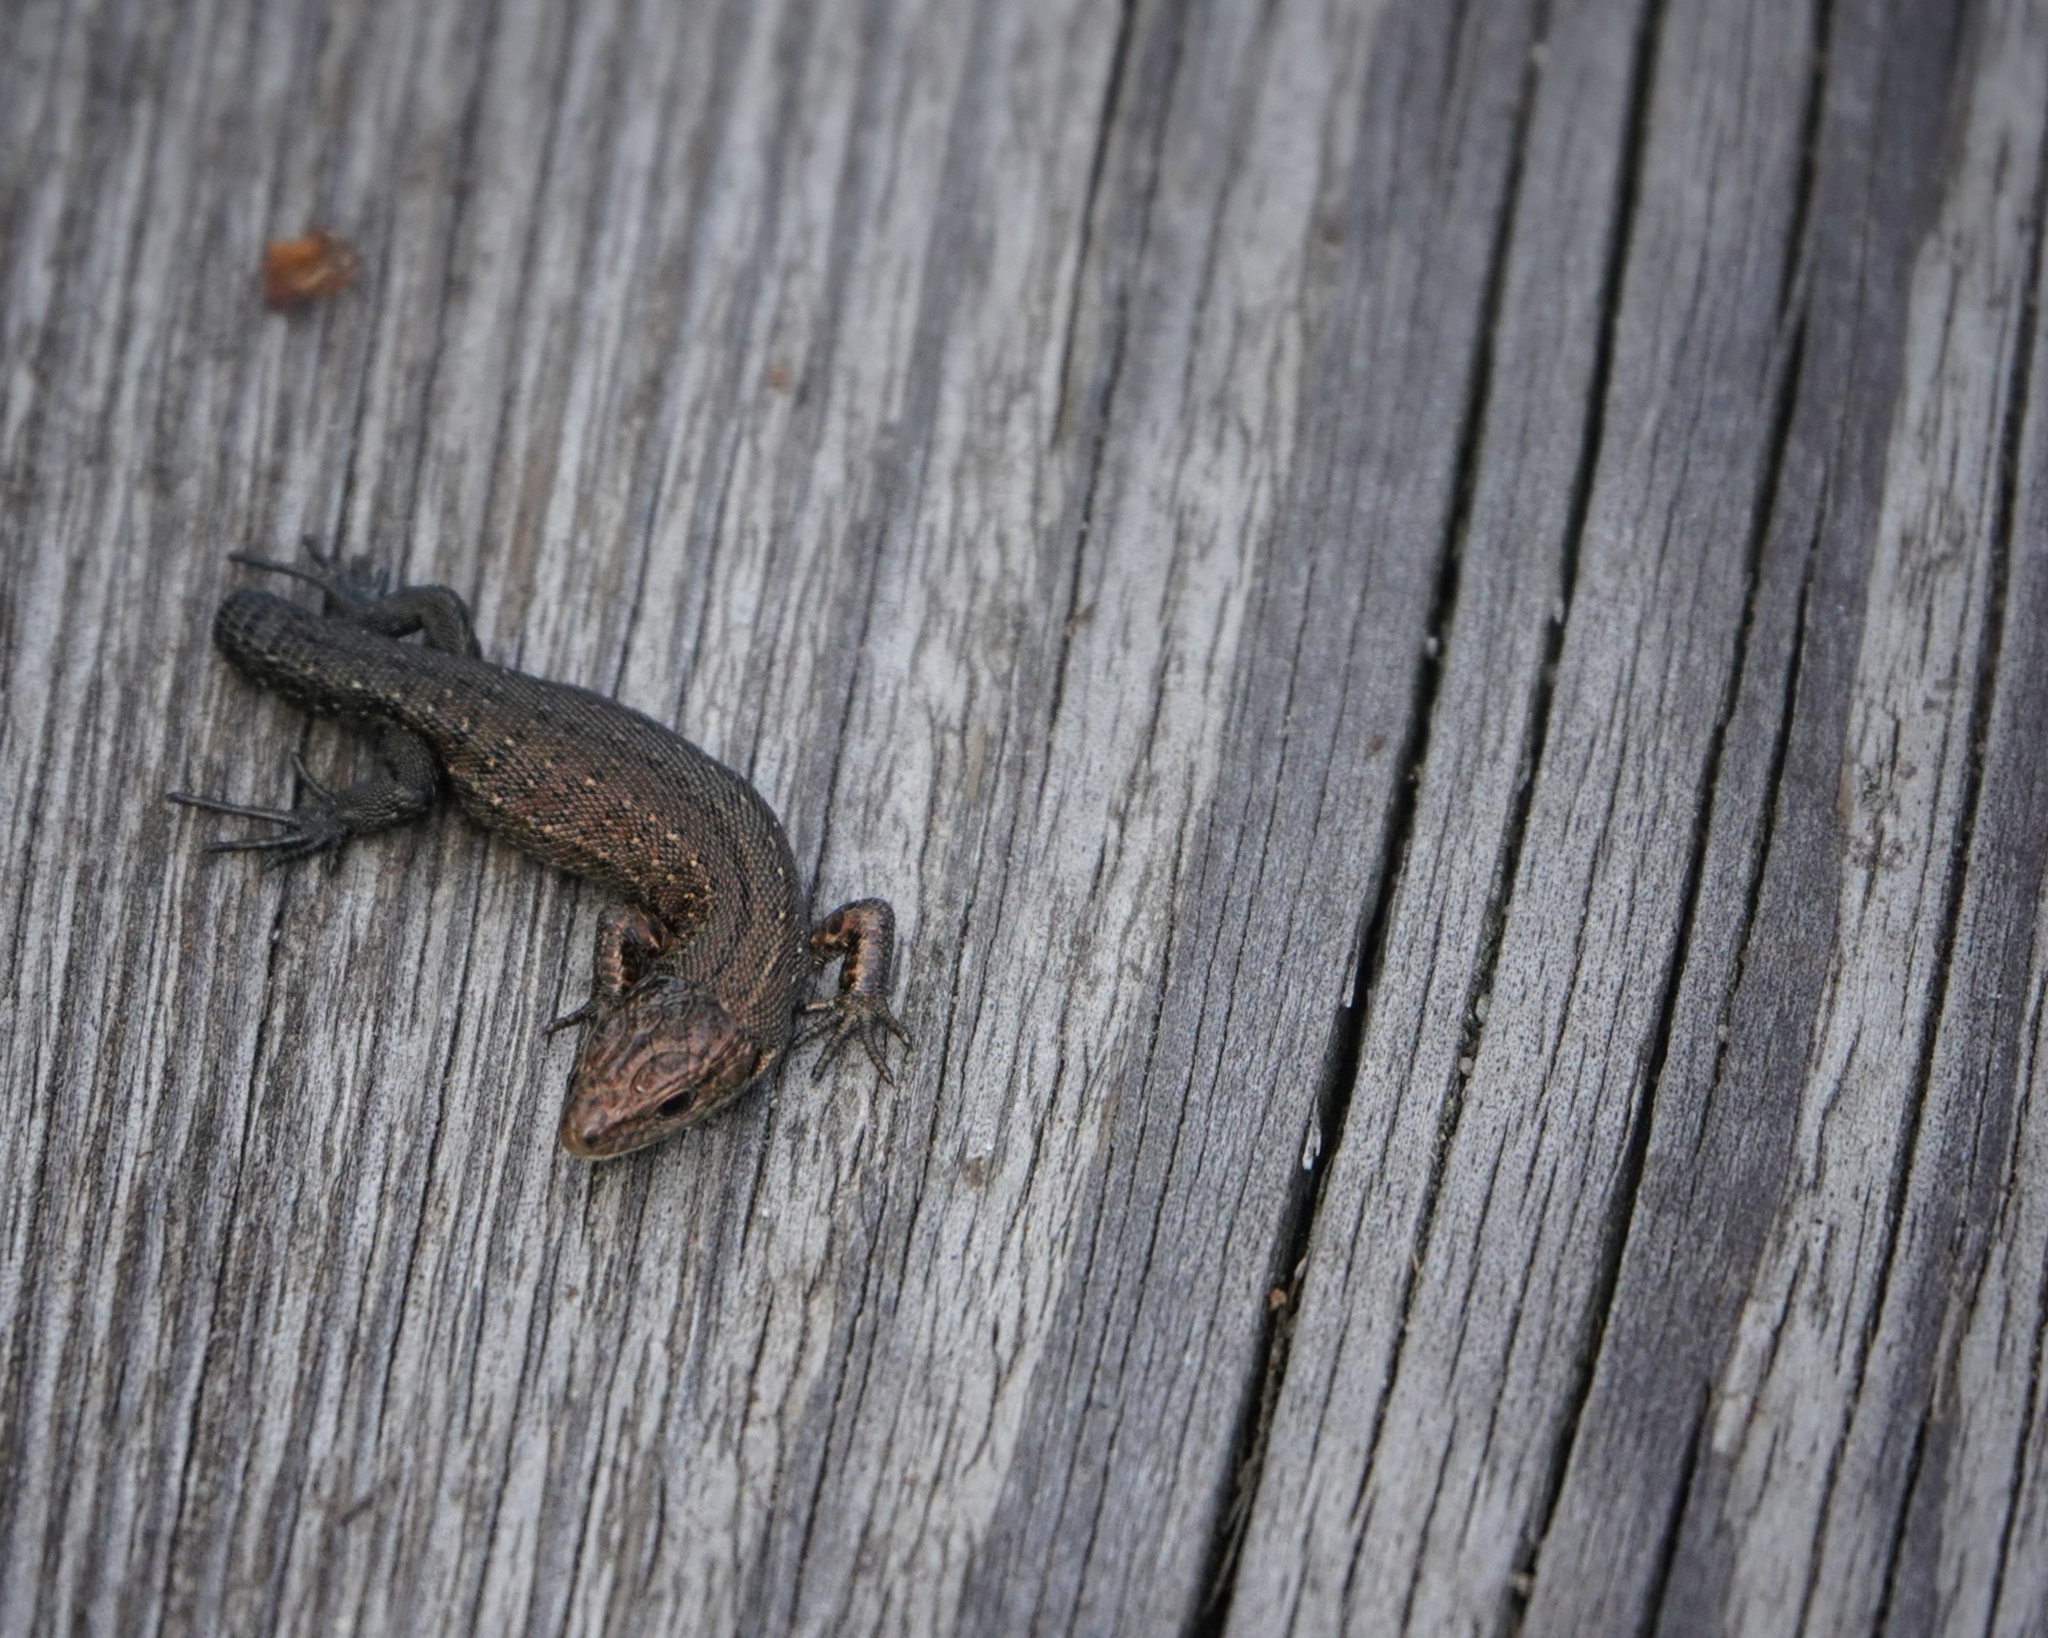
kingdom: Animalia
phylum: Chordata
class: Squamata
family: Lacertidae
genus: Zootoca
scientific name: Zootoca vivipara
